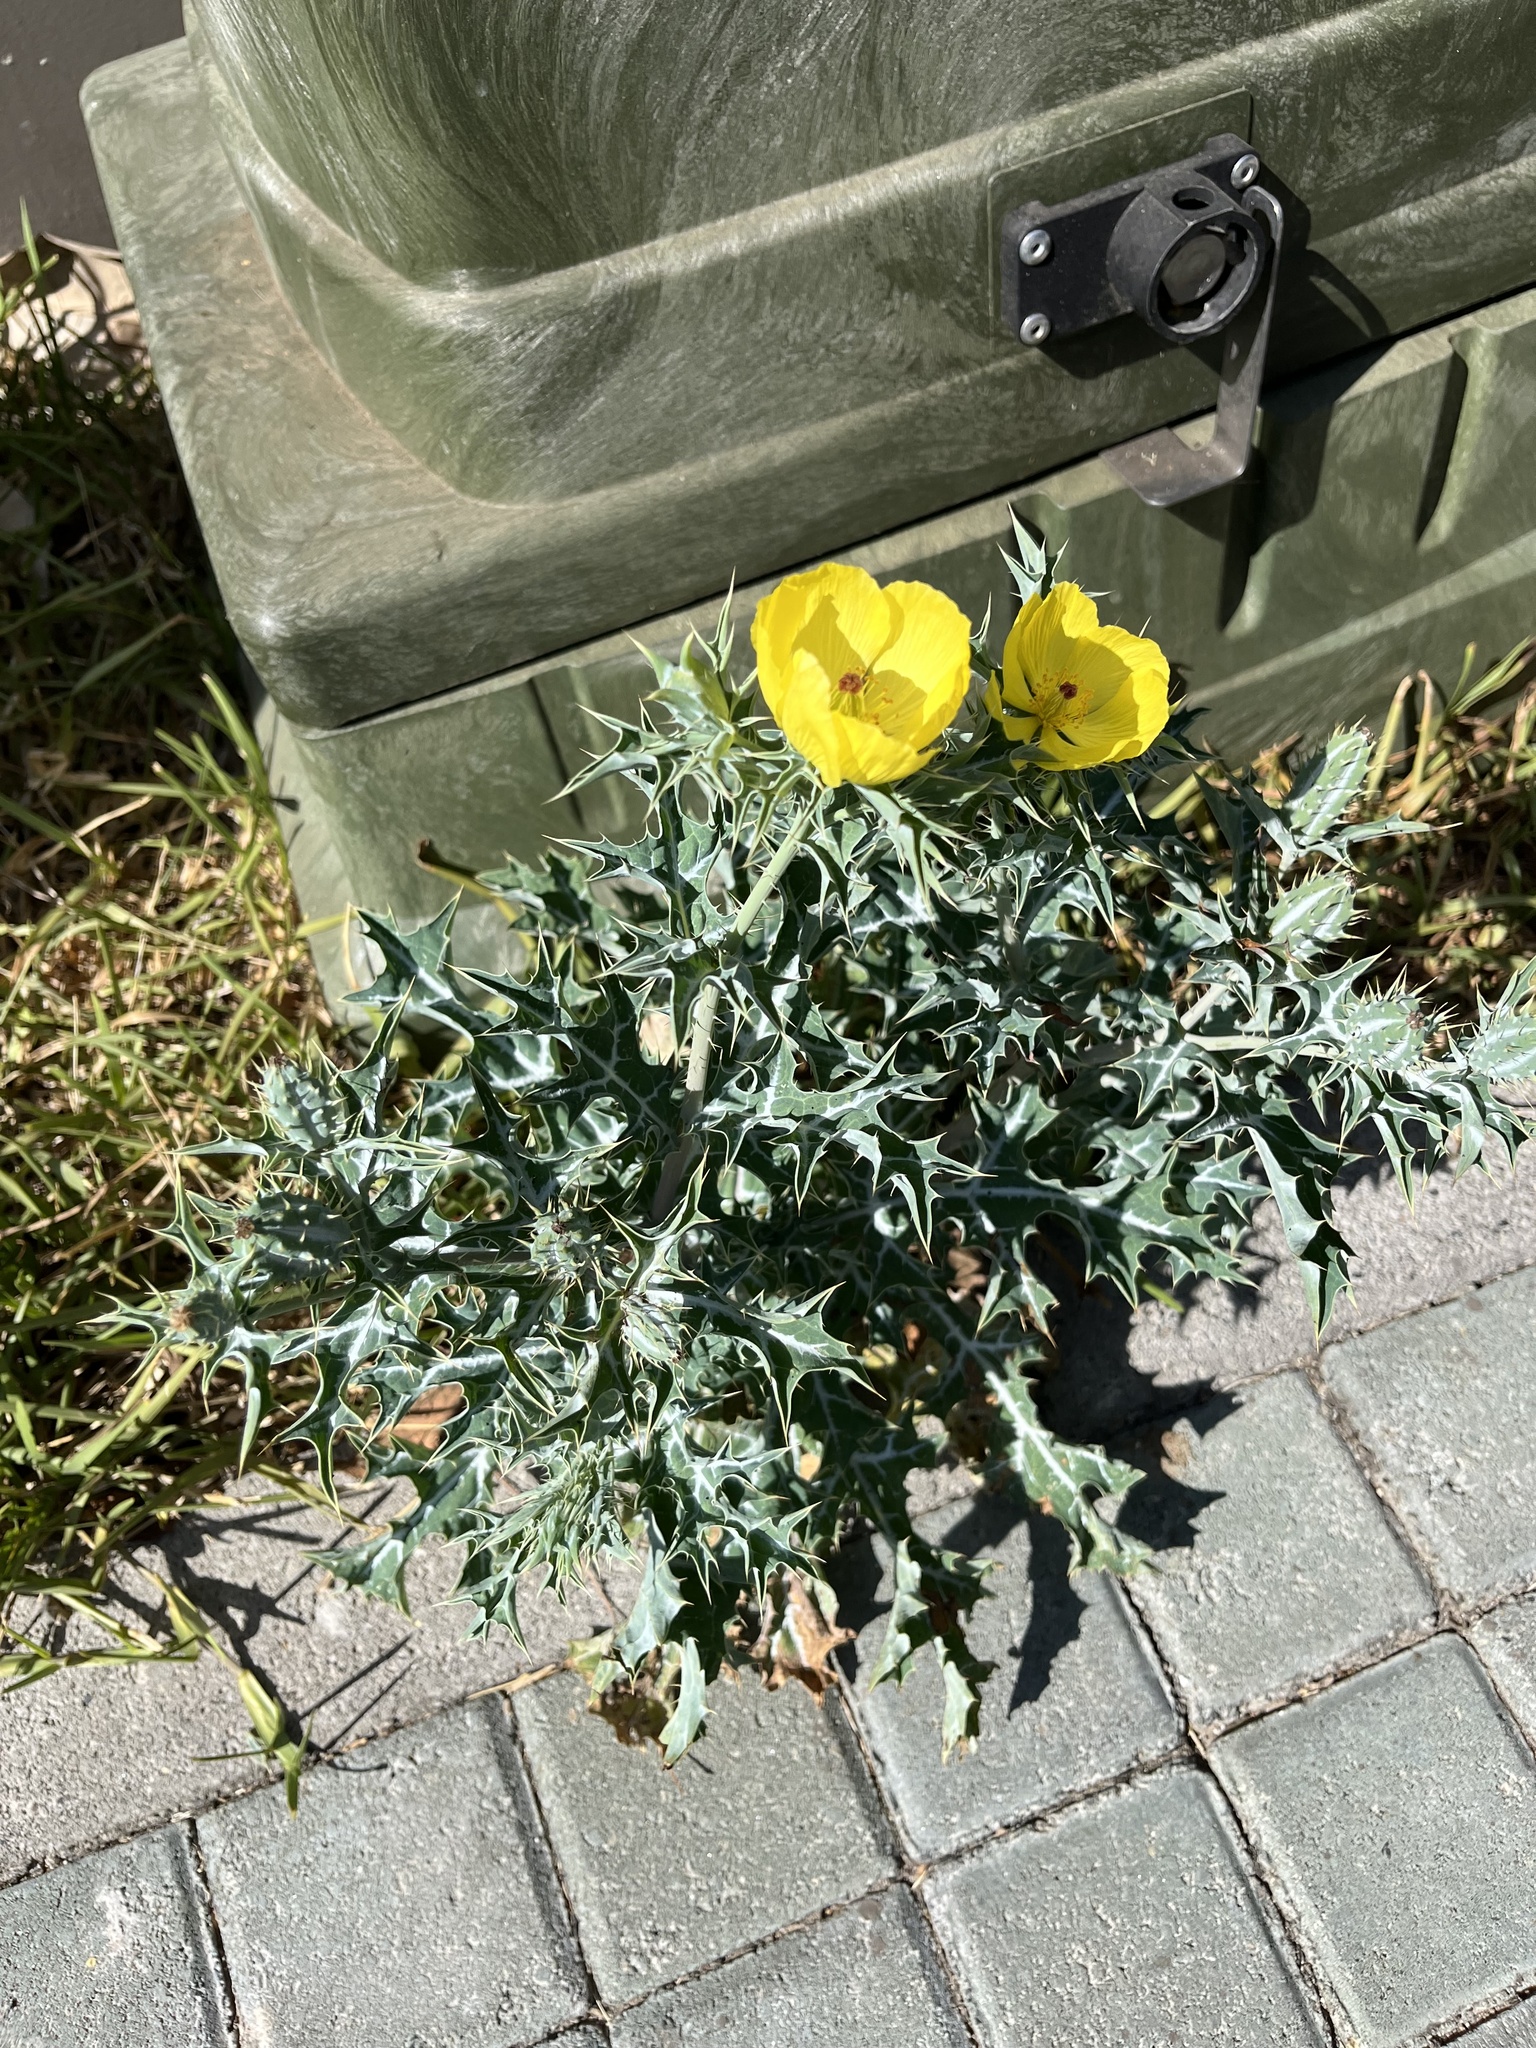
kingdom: Plantae
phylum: Tracheophyta
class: Magnoliopsida
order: Ranunculales
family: Papaveraceae
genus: Argemone
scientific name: Argemone mexicana
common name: Mexican poppy
